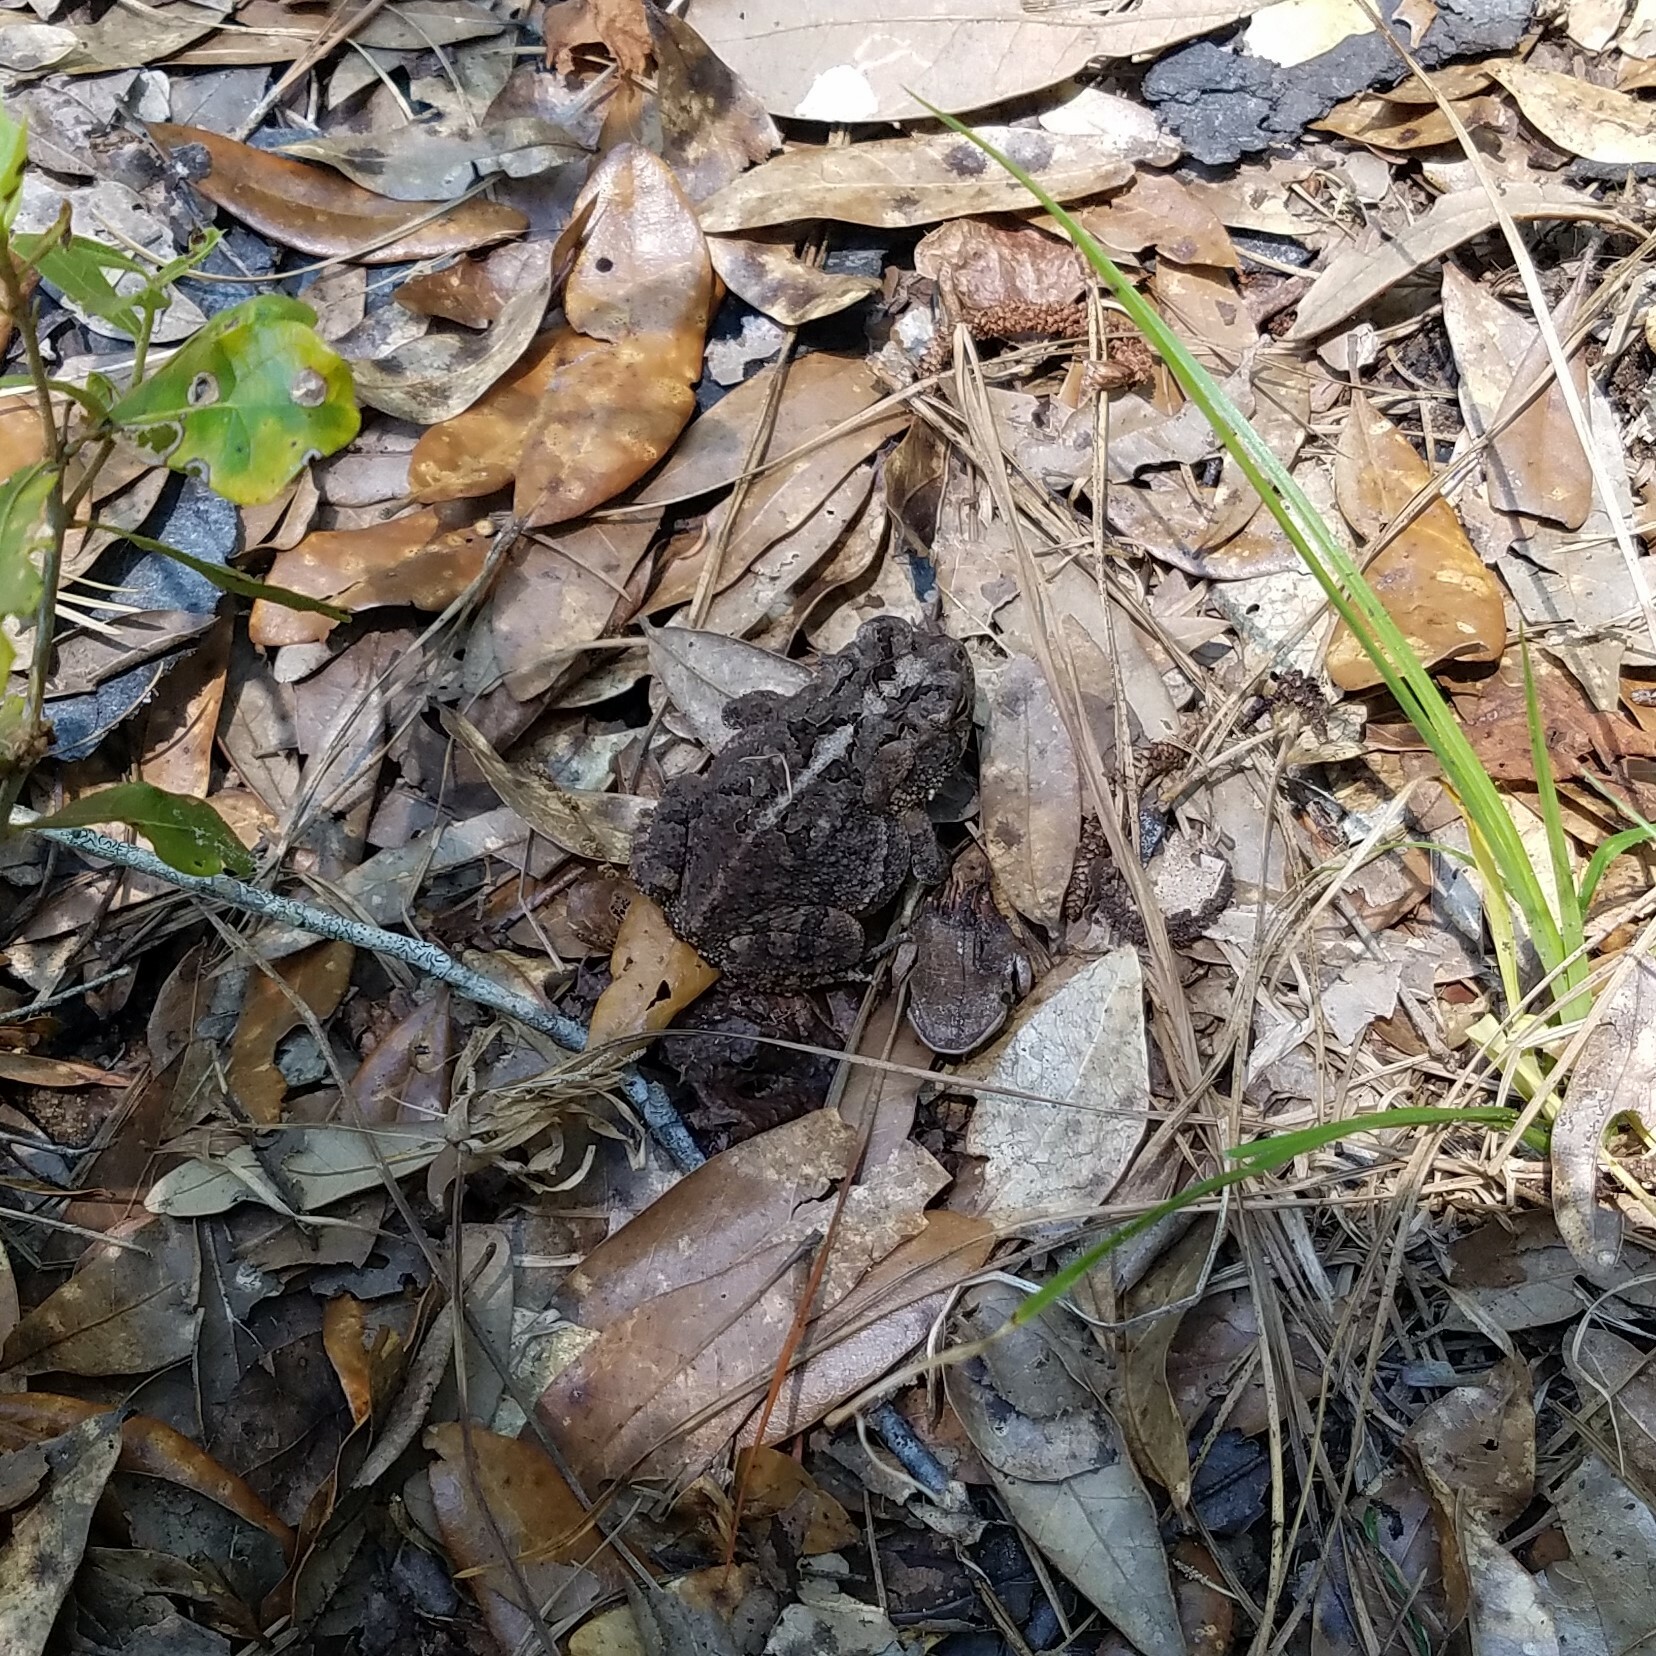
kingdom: Animalia
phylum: Chordata
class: Amphibia
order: Anura
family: Bufonidae
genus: Anaxyrus
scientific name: Anaxyrus terrestris
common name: Southern toad
